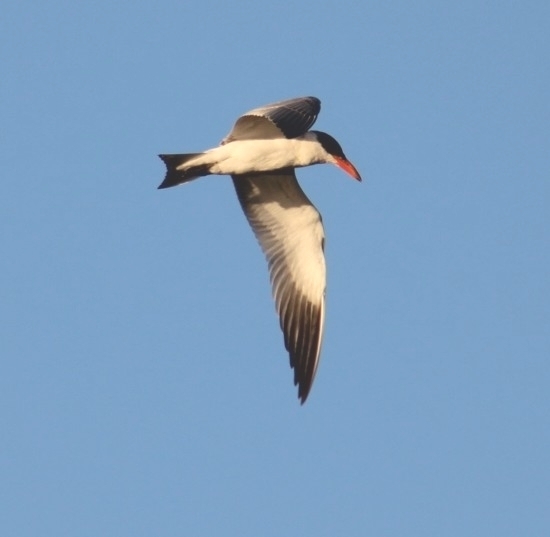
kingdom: Animalia
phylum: Chordata
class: Aves
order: Charadriiformes
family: Laridae
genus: Hydroprogne
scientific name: Hydroprogne caspia
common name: Caspian tern
